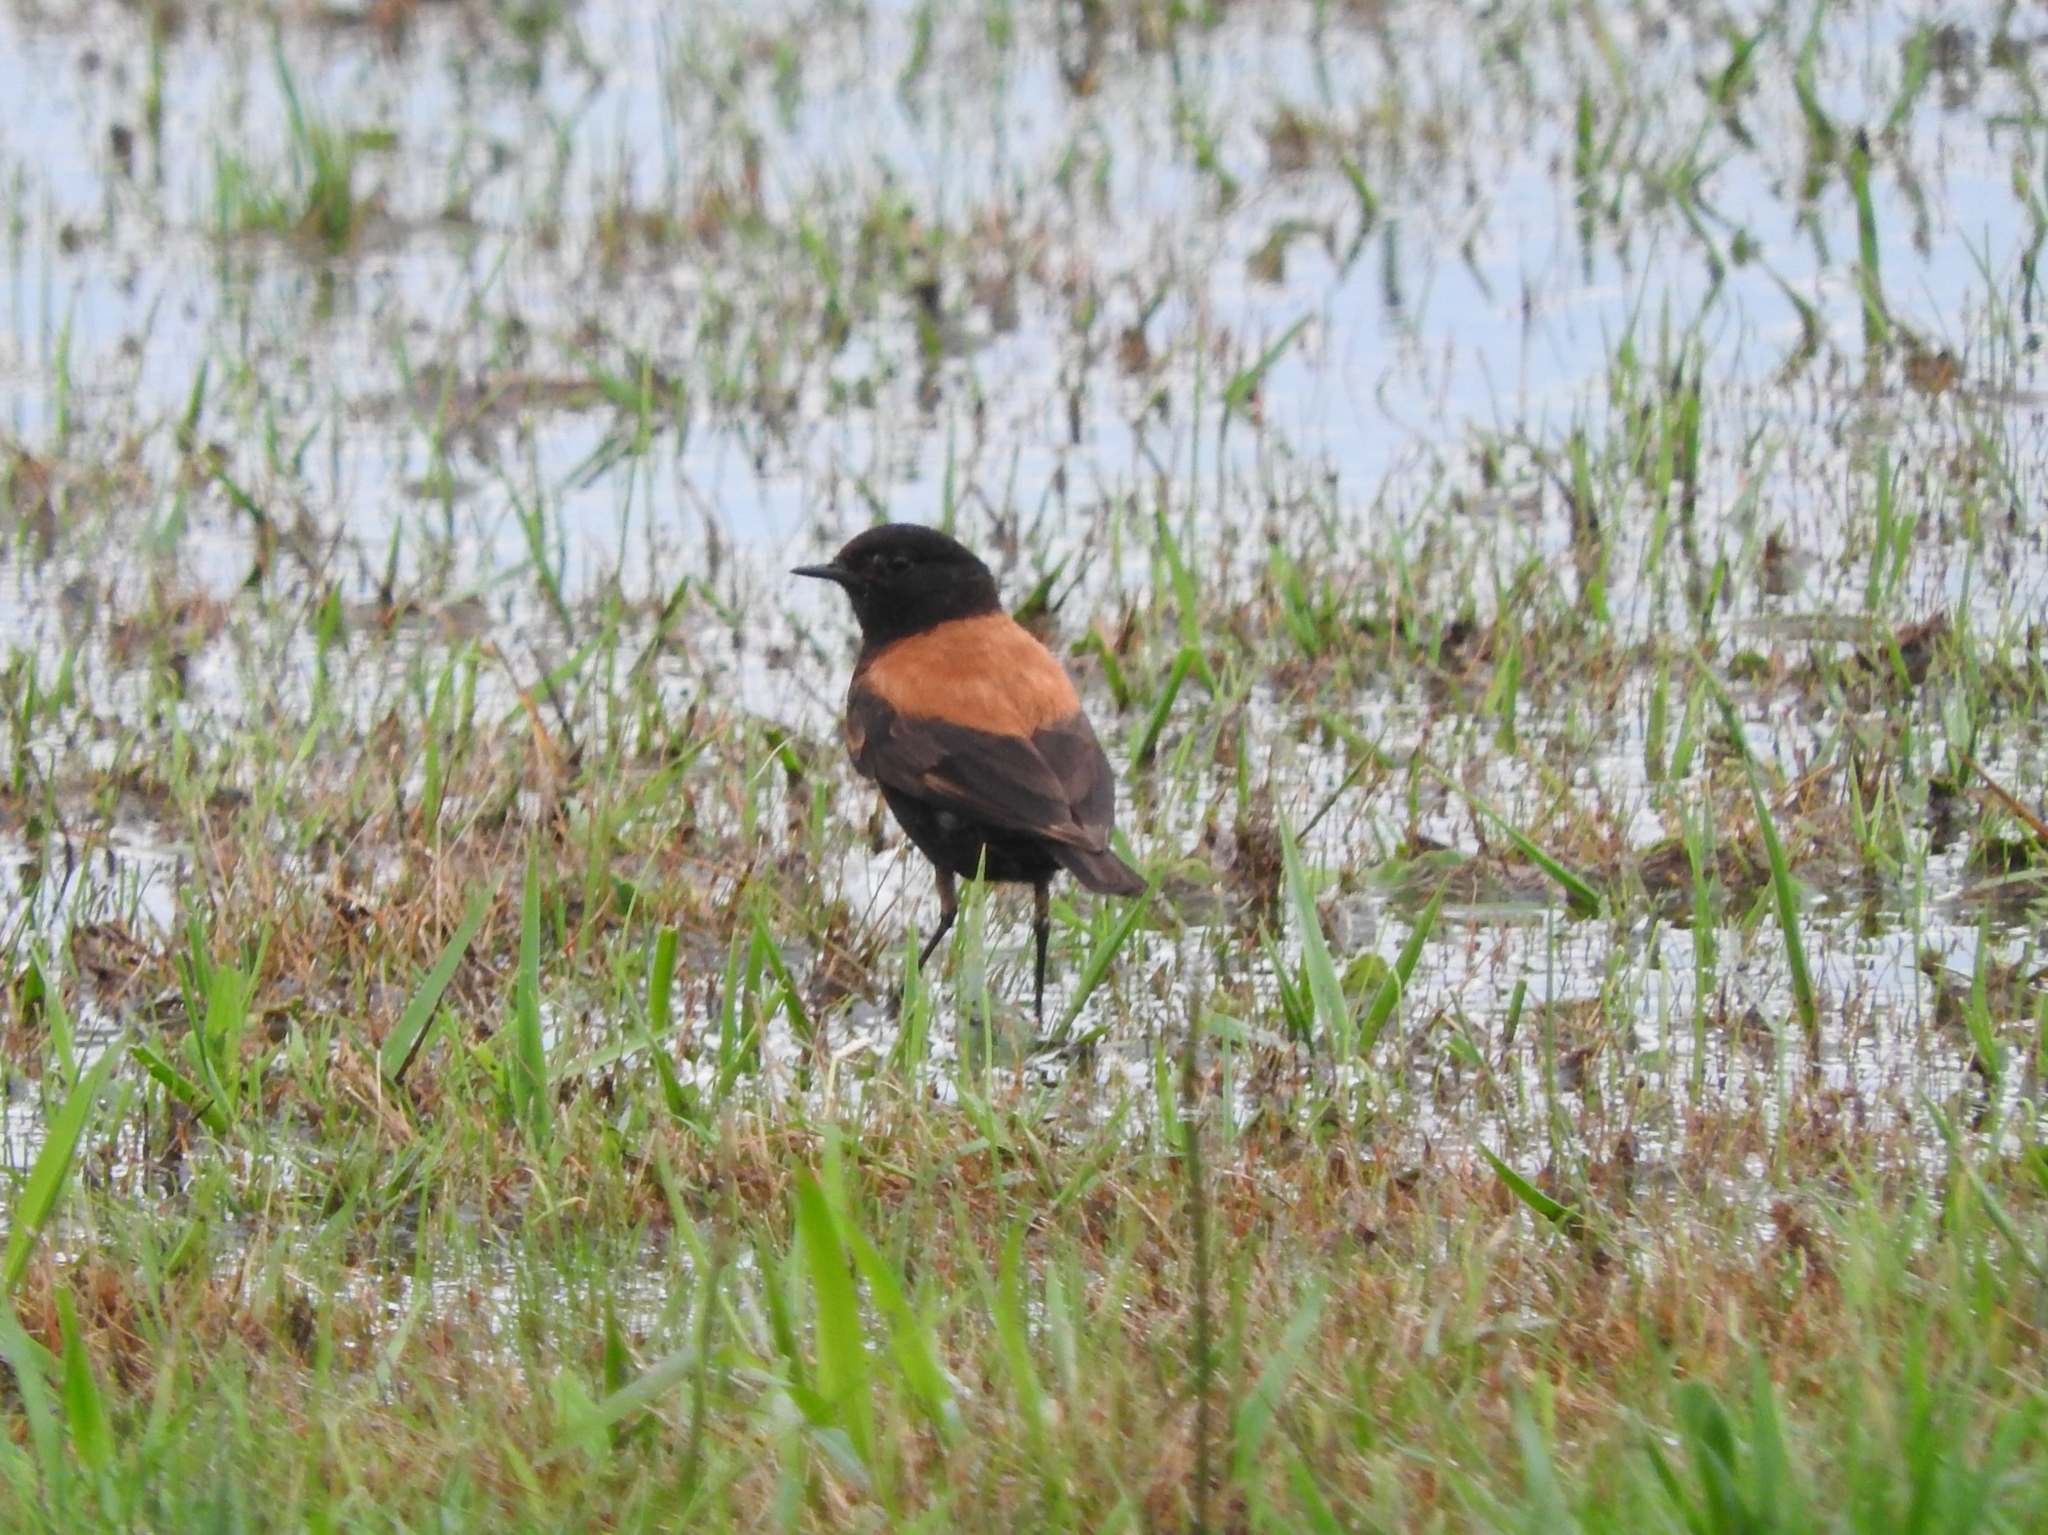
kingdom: Animalia
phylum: Chordata
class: Aves
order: Passeriformes
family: Tyrannidae
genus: Lessonia
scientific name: Lessonia rufa
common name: Austral negrito
